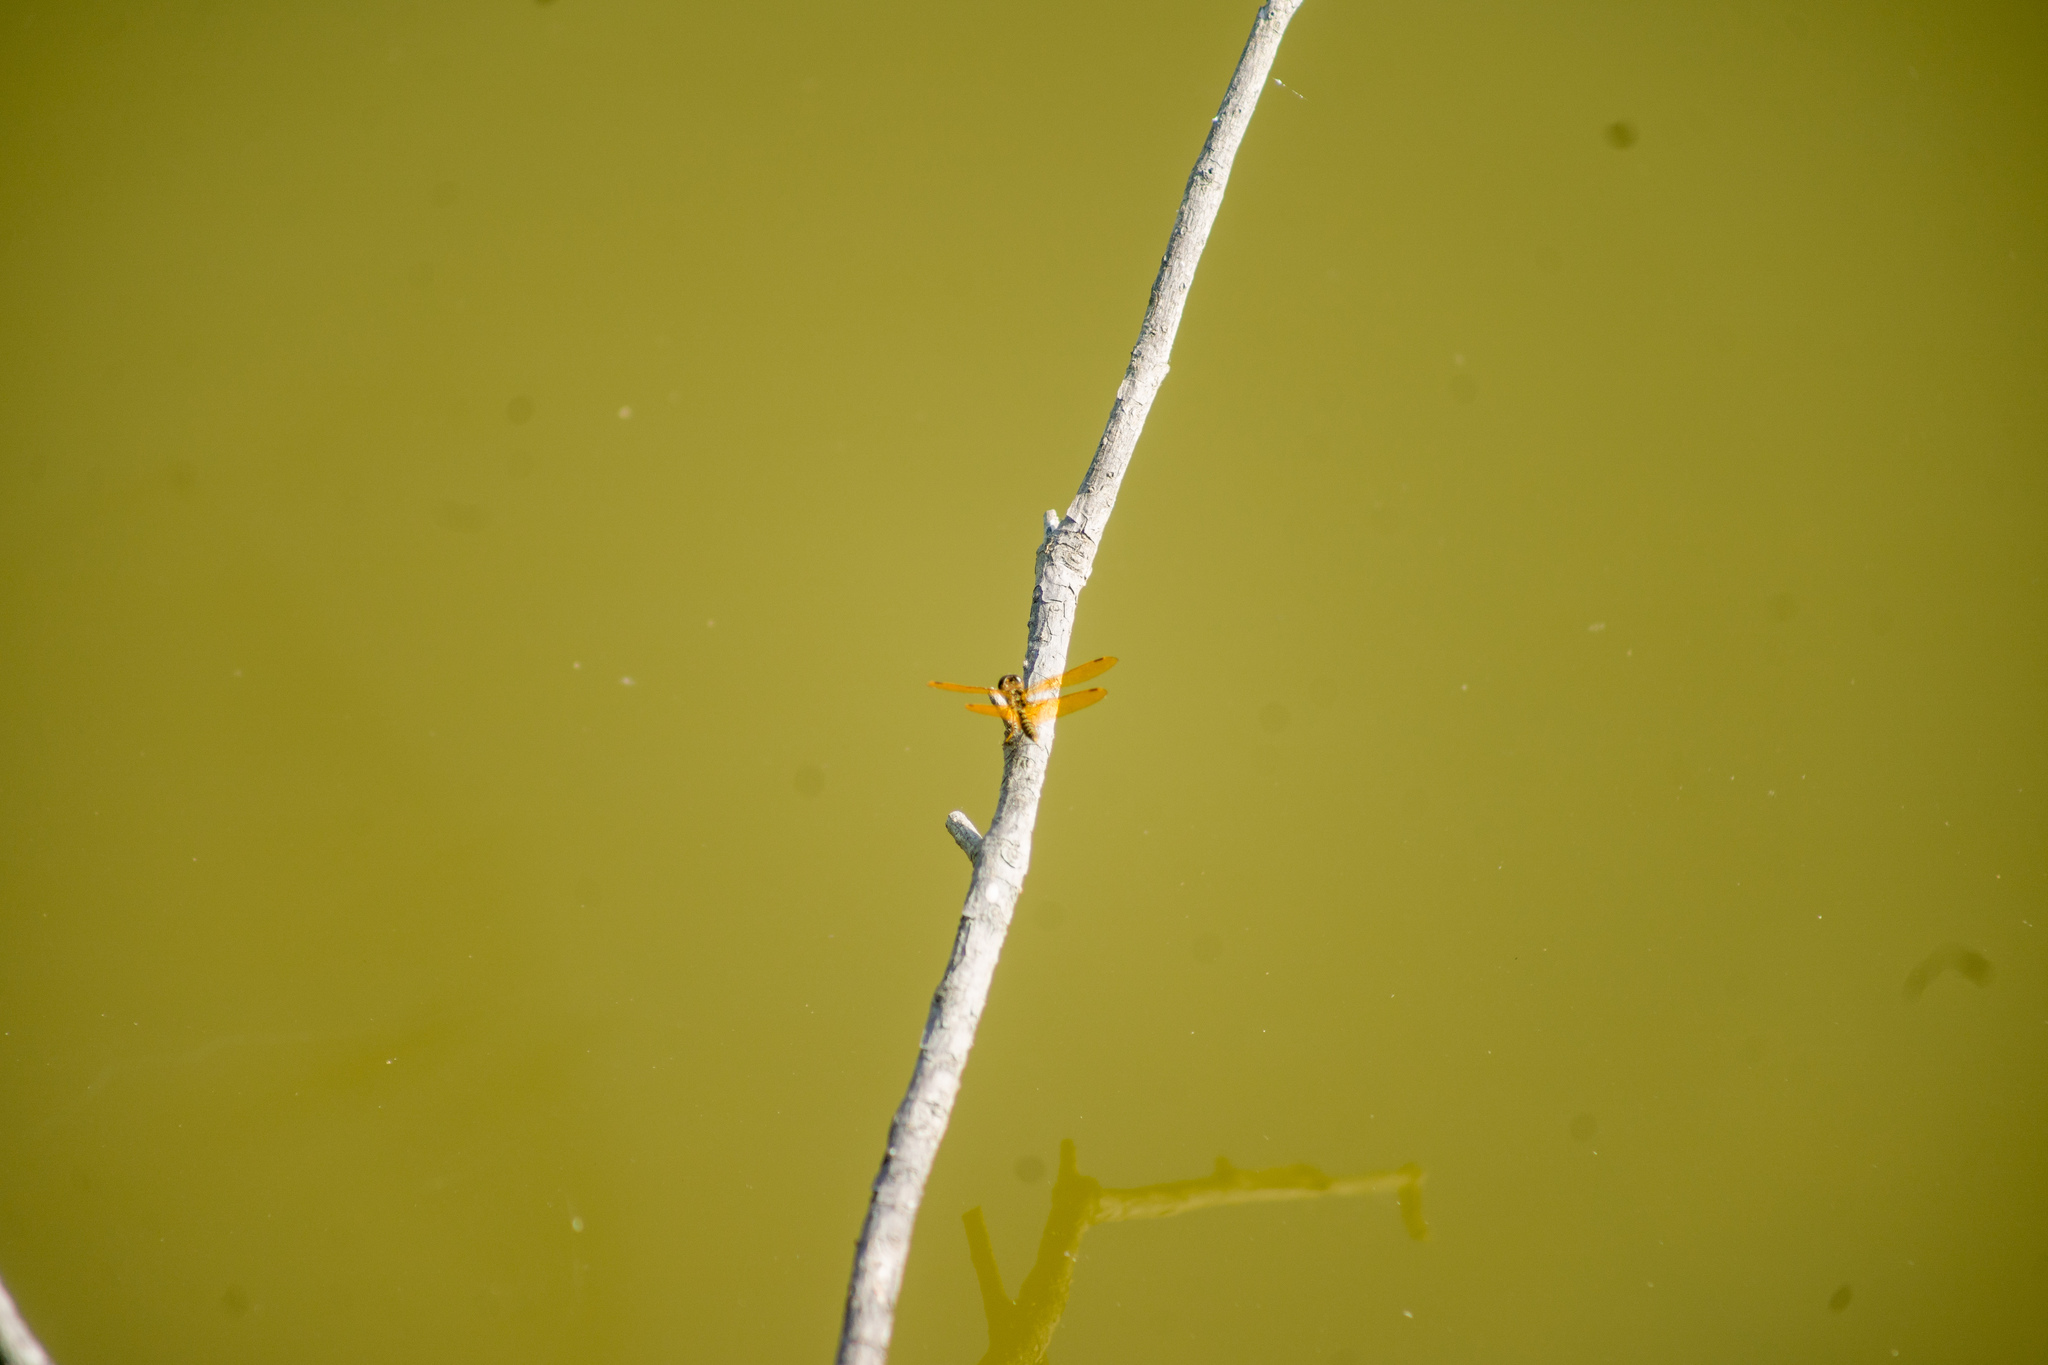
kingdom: Animalia
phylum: Arthropoda
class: Insecta
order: Odonata
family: Libellulidae
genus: Perithemis
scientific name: Perithemis tenera
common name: Eastern amberwing
